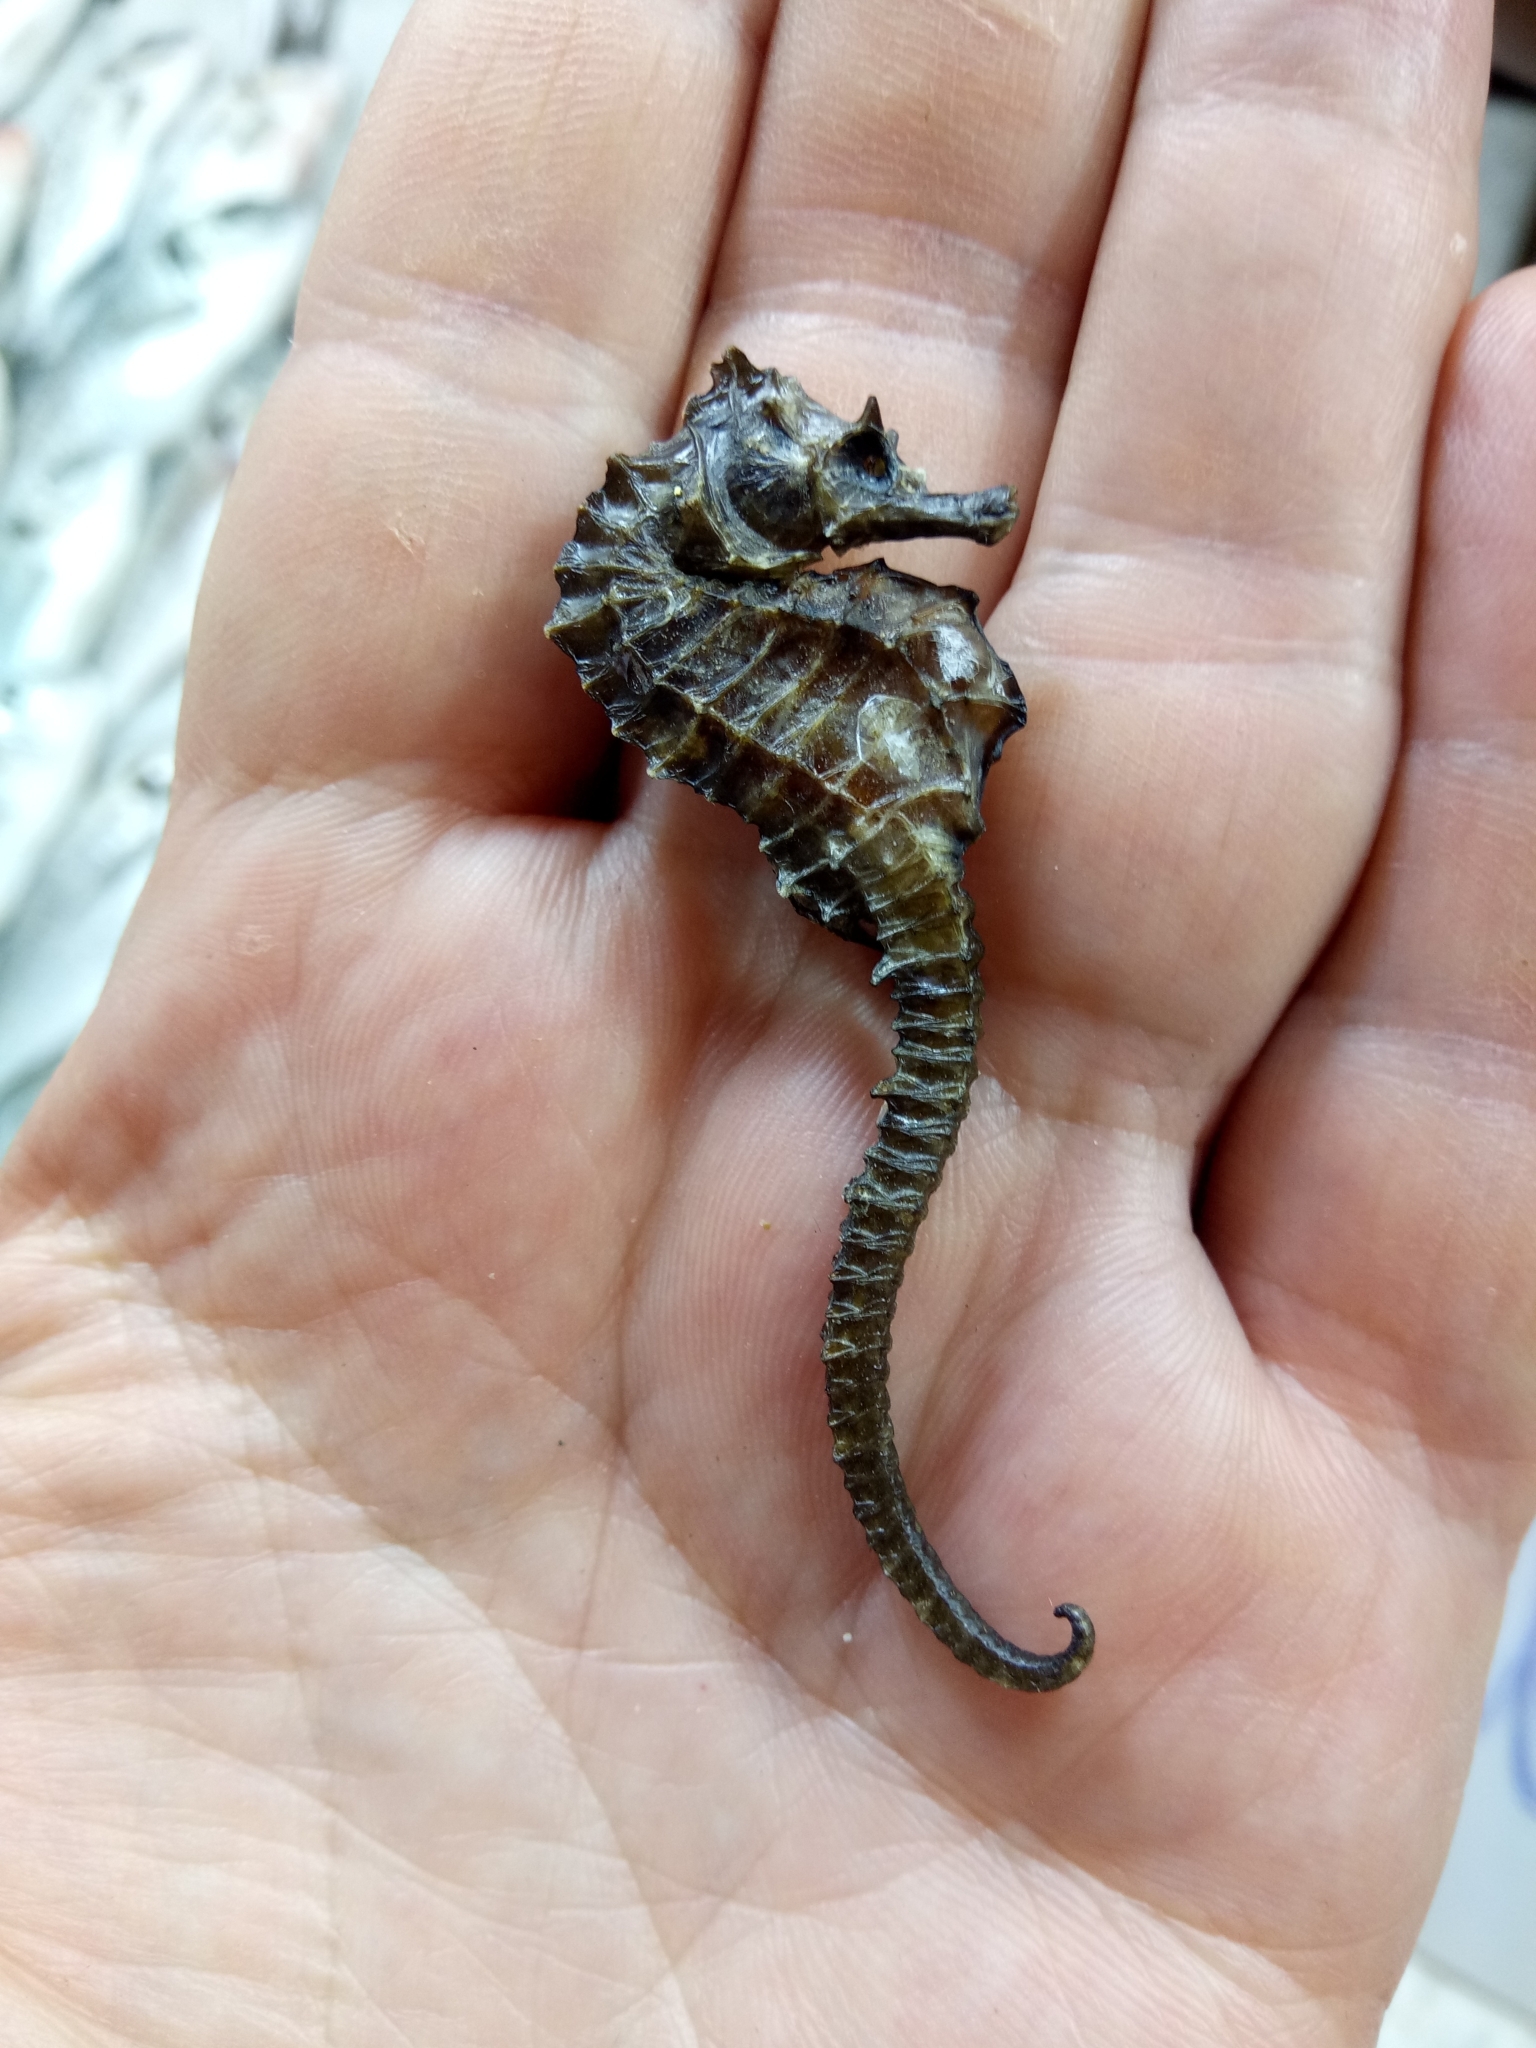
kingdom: Animalia
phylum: Chordata
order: Syngnathiformes
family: Syngnathidae
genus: Hippocampus
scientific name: Hippocampus guttulatus
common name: Long-snouted seahorse
